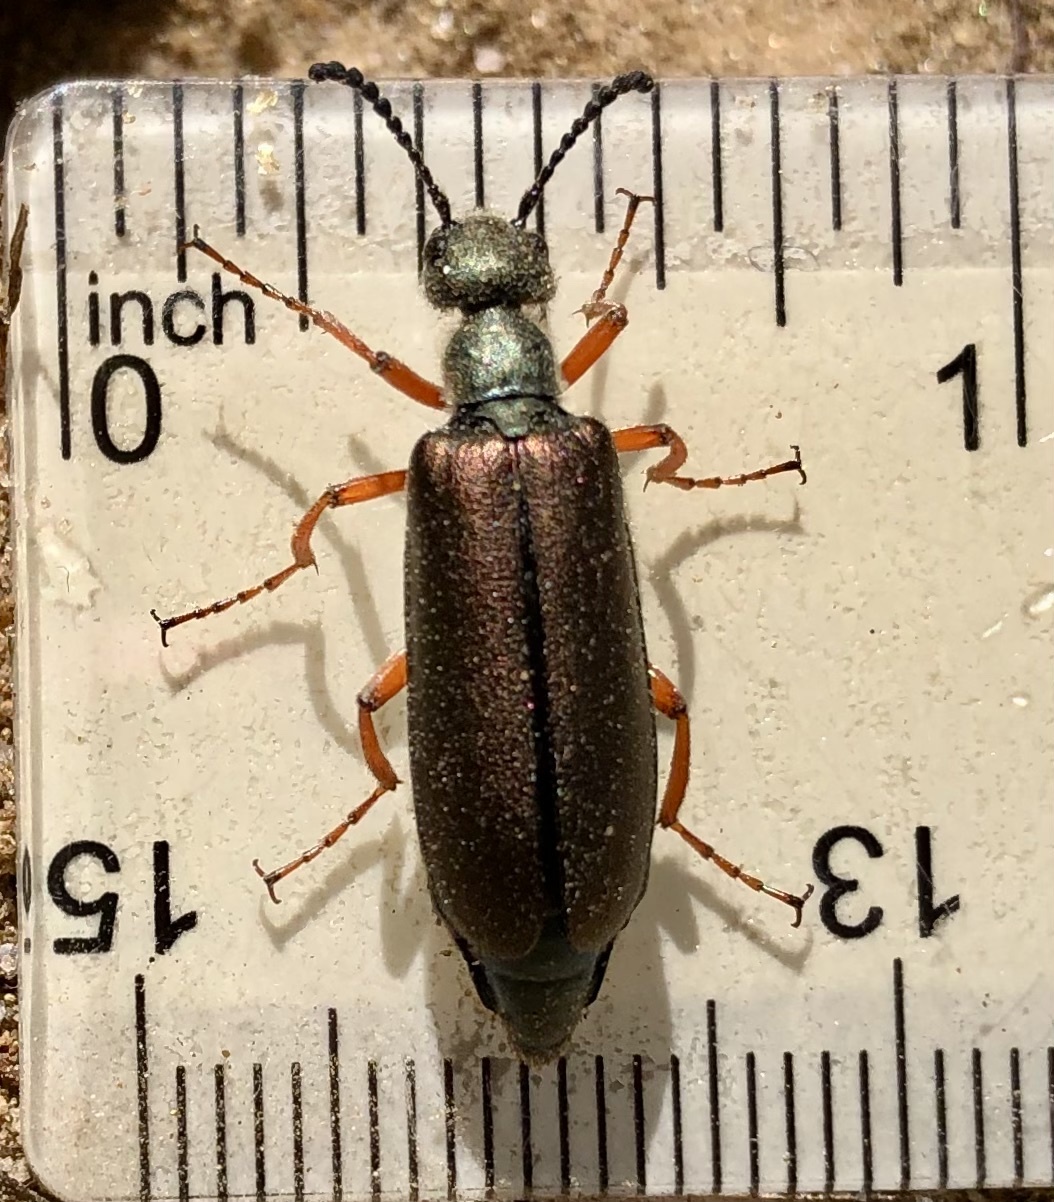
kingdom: Animalia
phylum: Arthropoda
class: Insecta
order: Coleoptera
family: Meloidae
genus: Lytta
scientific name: Lytta aenea
